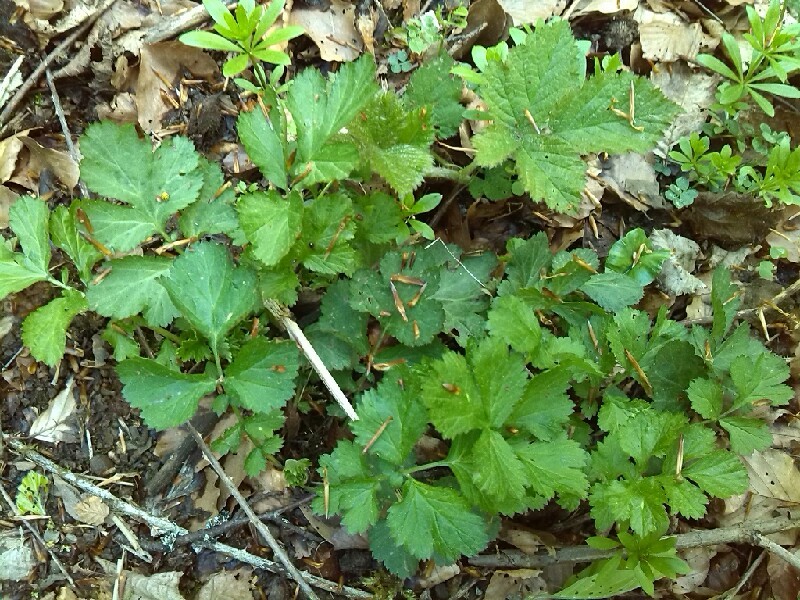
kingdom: Plantae
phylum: Tracheophyta
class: Magnoliopsida
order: Rosales
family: Rosaceae
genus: Geum
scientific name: Geum rivale
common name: Water avens
